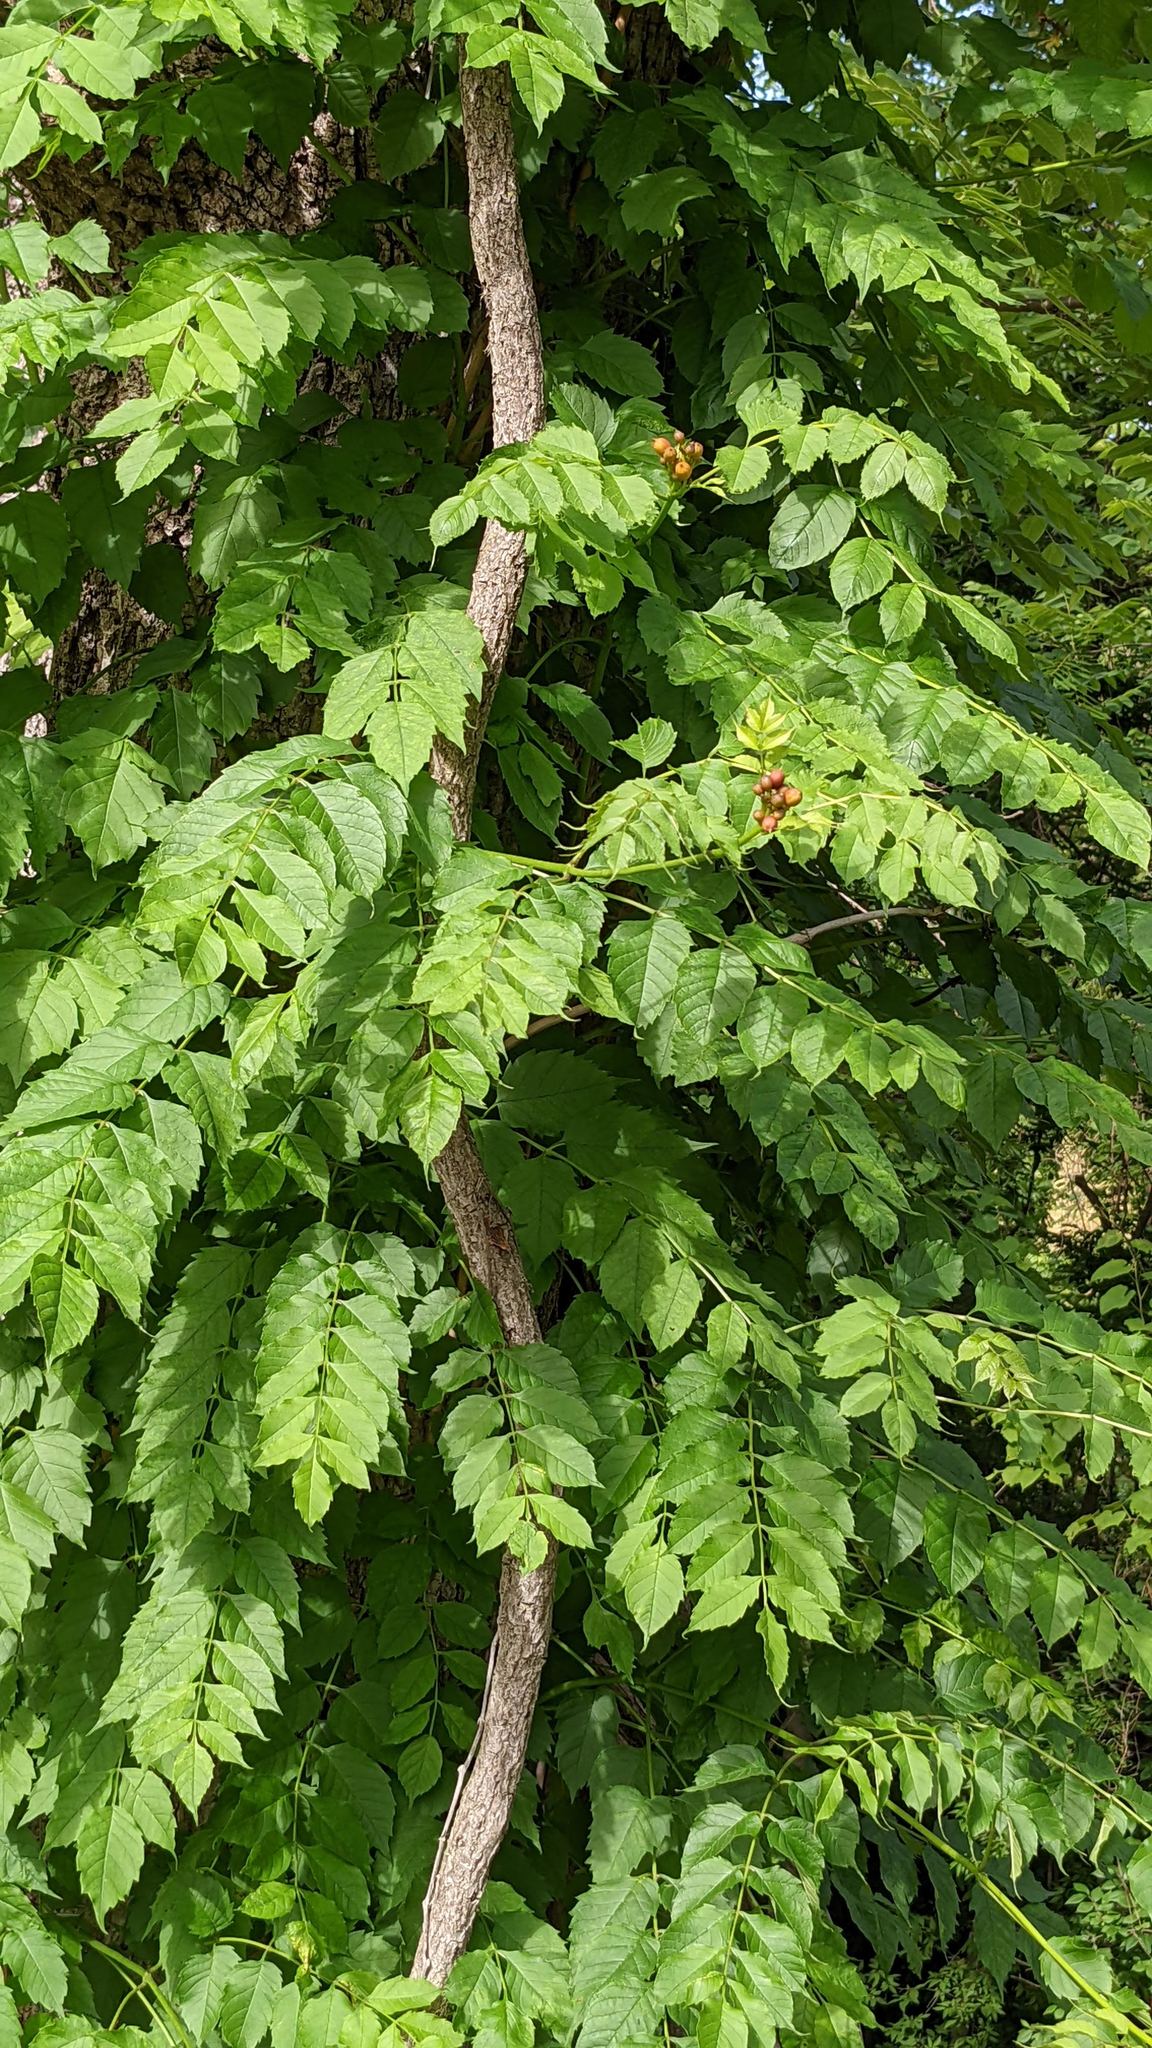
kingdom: Plantae
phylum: Tracheophyta
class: Magnoliopsida
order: Lamiales
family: Bignoniaceae
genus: Campsis
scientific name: Campsis radicans
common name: Trumpet-creeper
